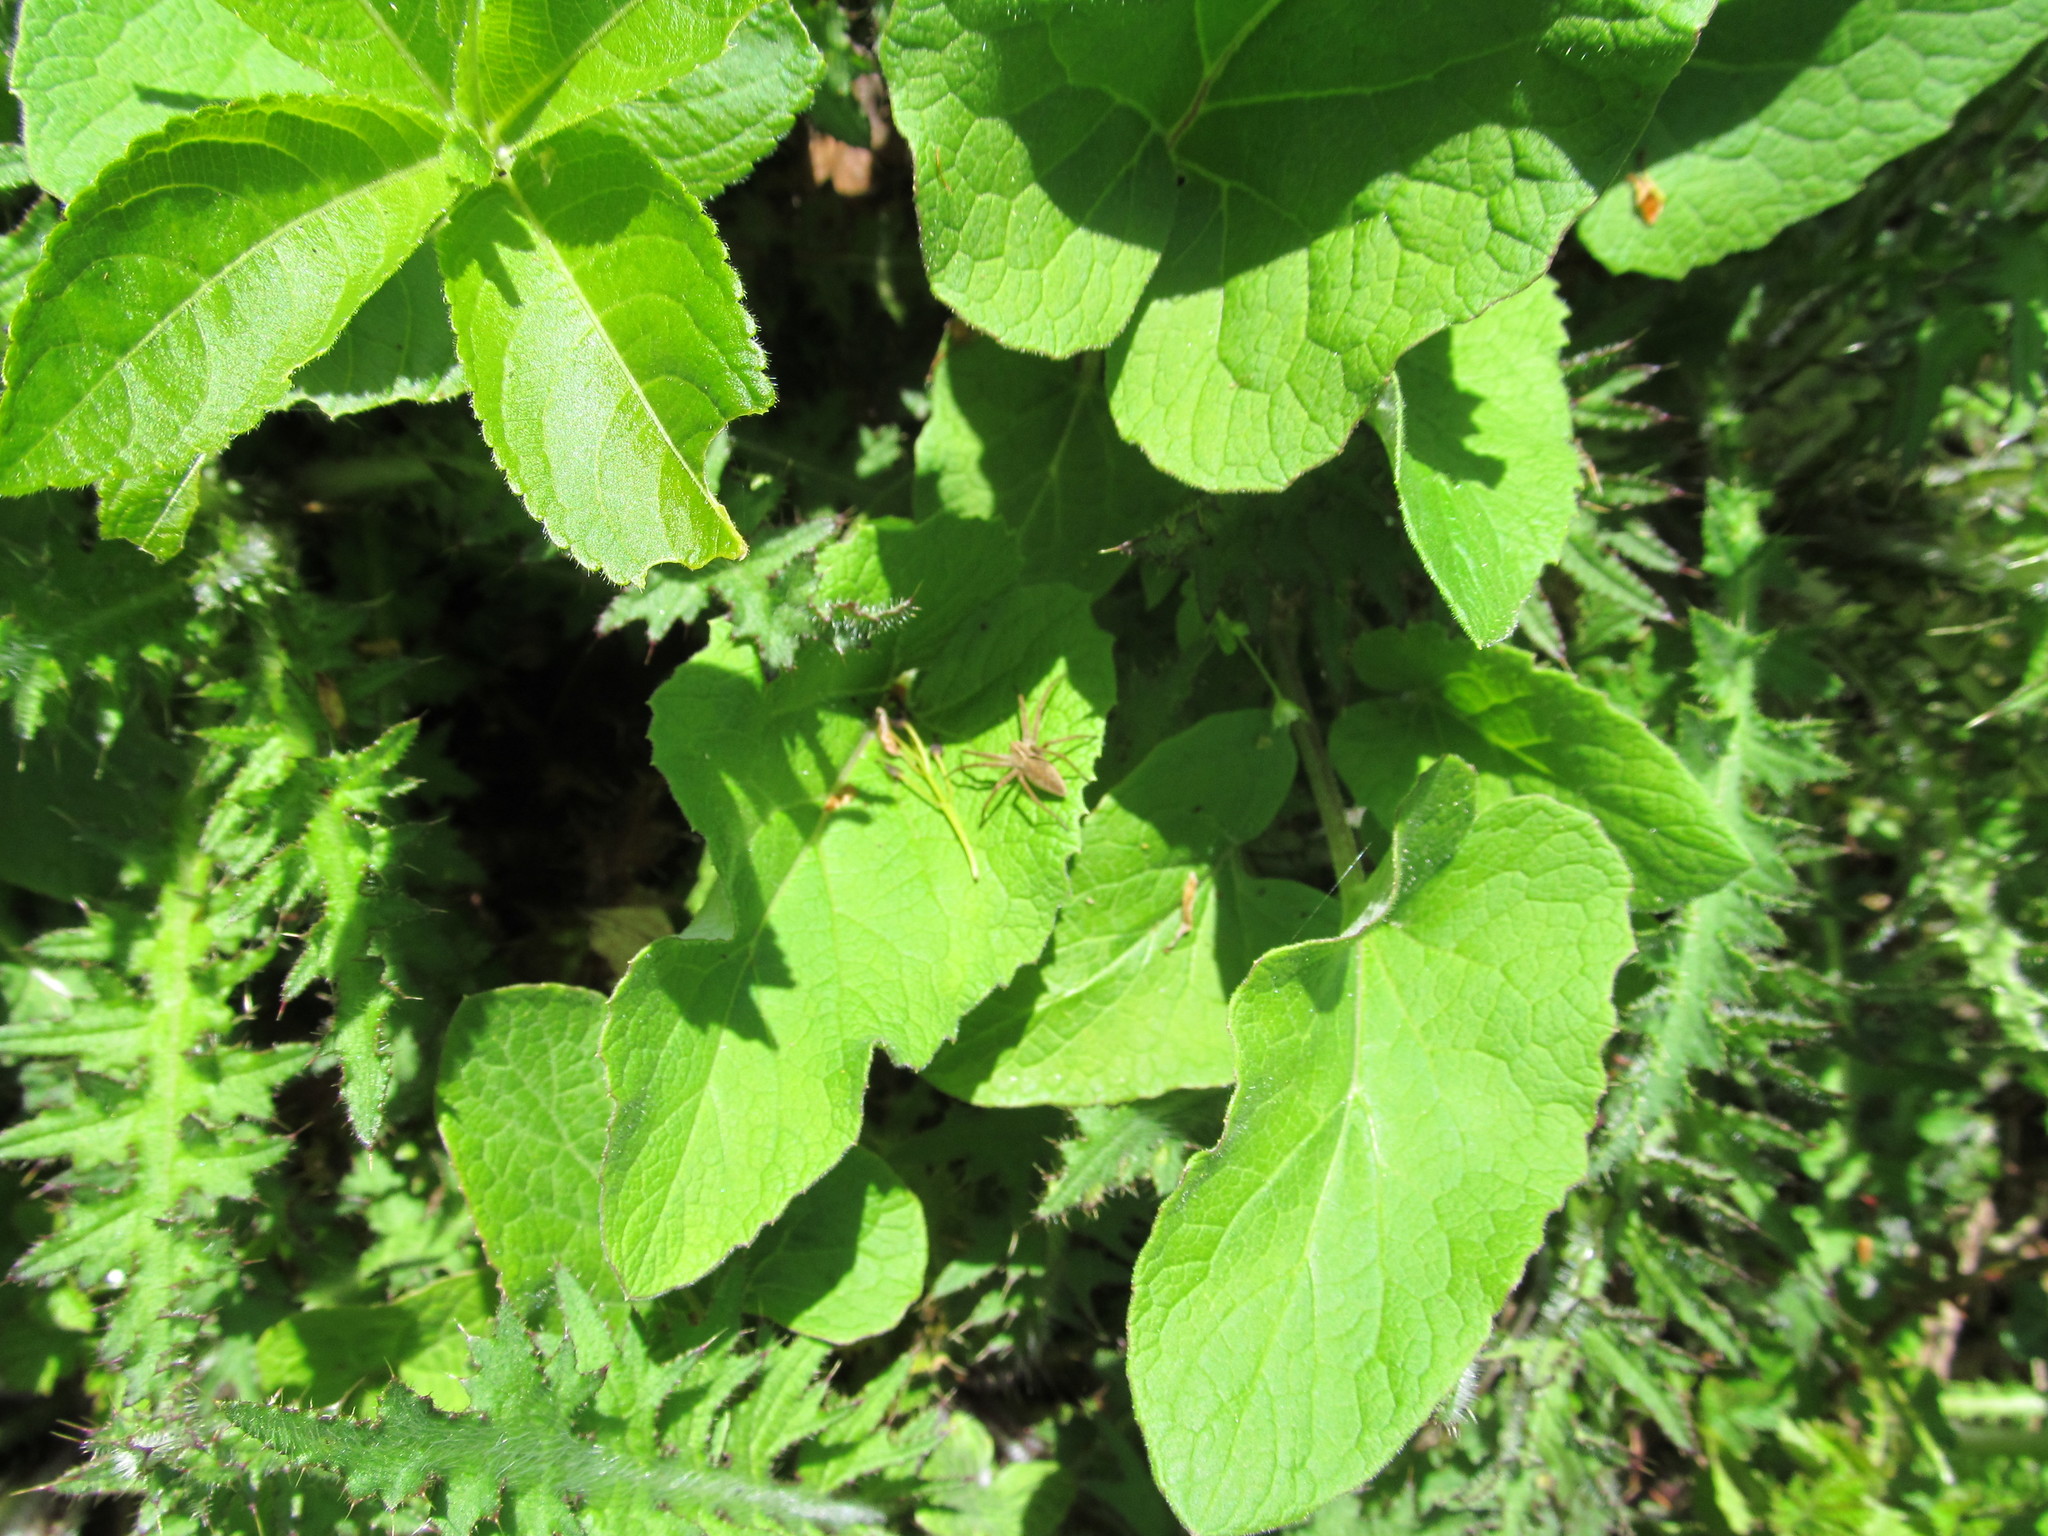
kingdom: Animalia
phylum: Arthropoda
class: Arachnida
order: Araneae
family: Pisauridae
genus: Pisaura
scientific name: Pisaura mirabilis
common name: Tent spider
